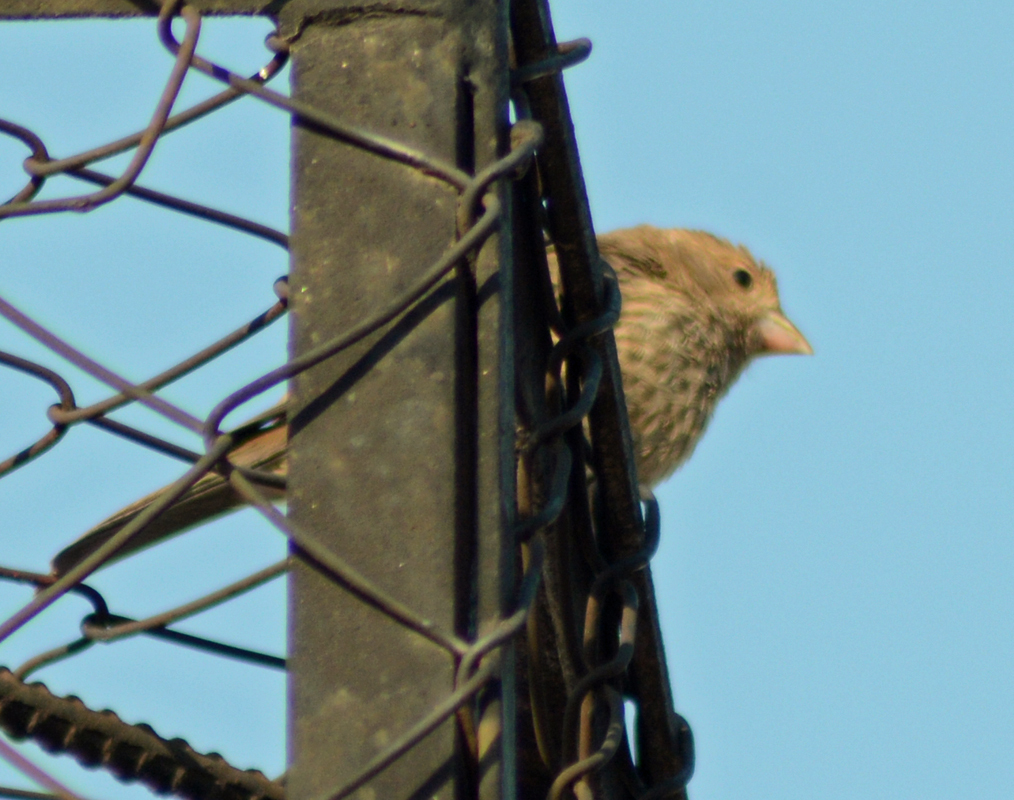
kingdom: Animalia
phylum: Chordata
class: Aves
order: Passeriformes
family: Fringillidae
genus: Haemorhous
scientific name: Haemorhous mexicanus
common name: House finch
